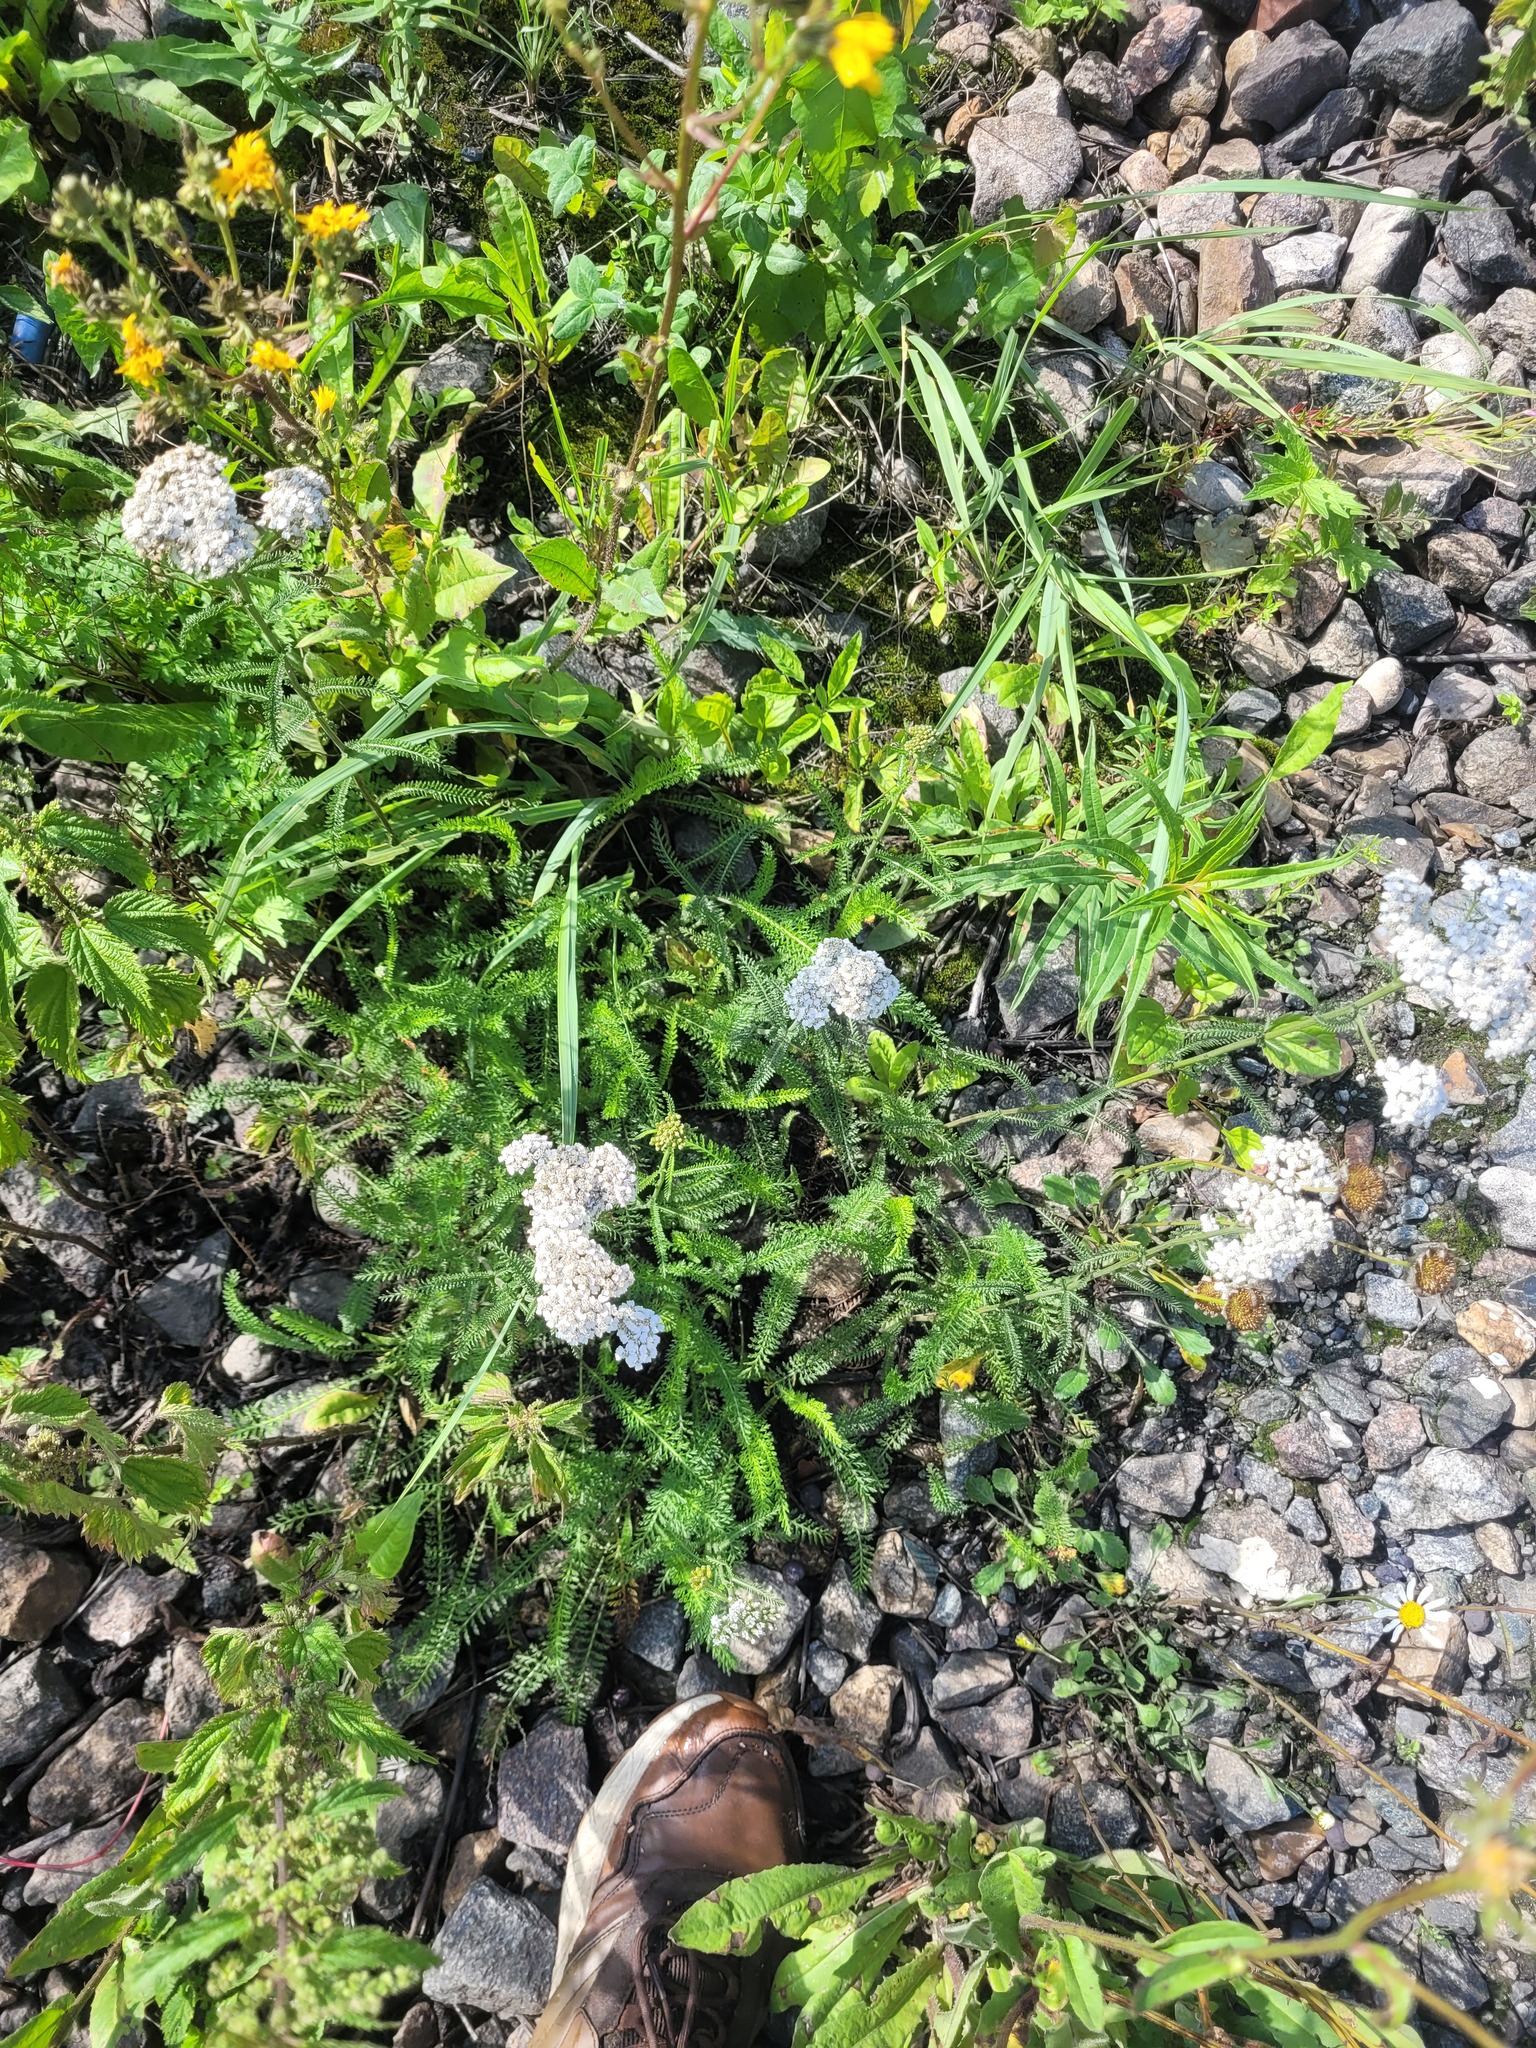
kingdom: Plantae
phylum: Tracheophyta
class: Magnoliopsida
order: Asterales
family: Asteraceae
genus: Achillea
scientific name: Achillea millefolium
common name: Yarrow
